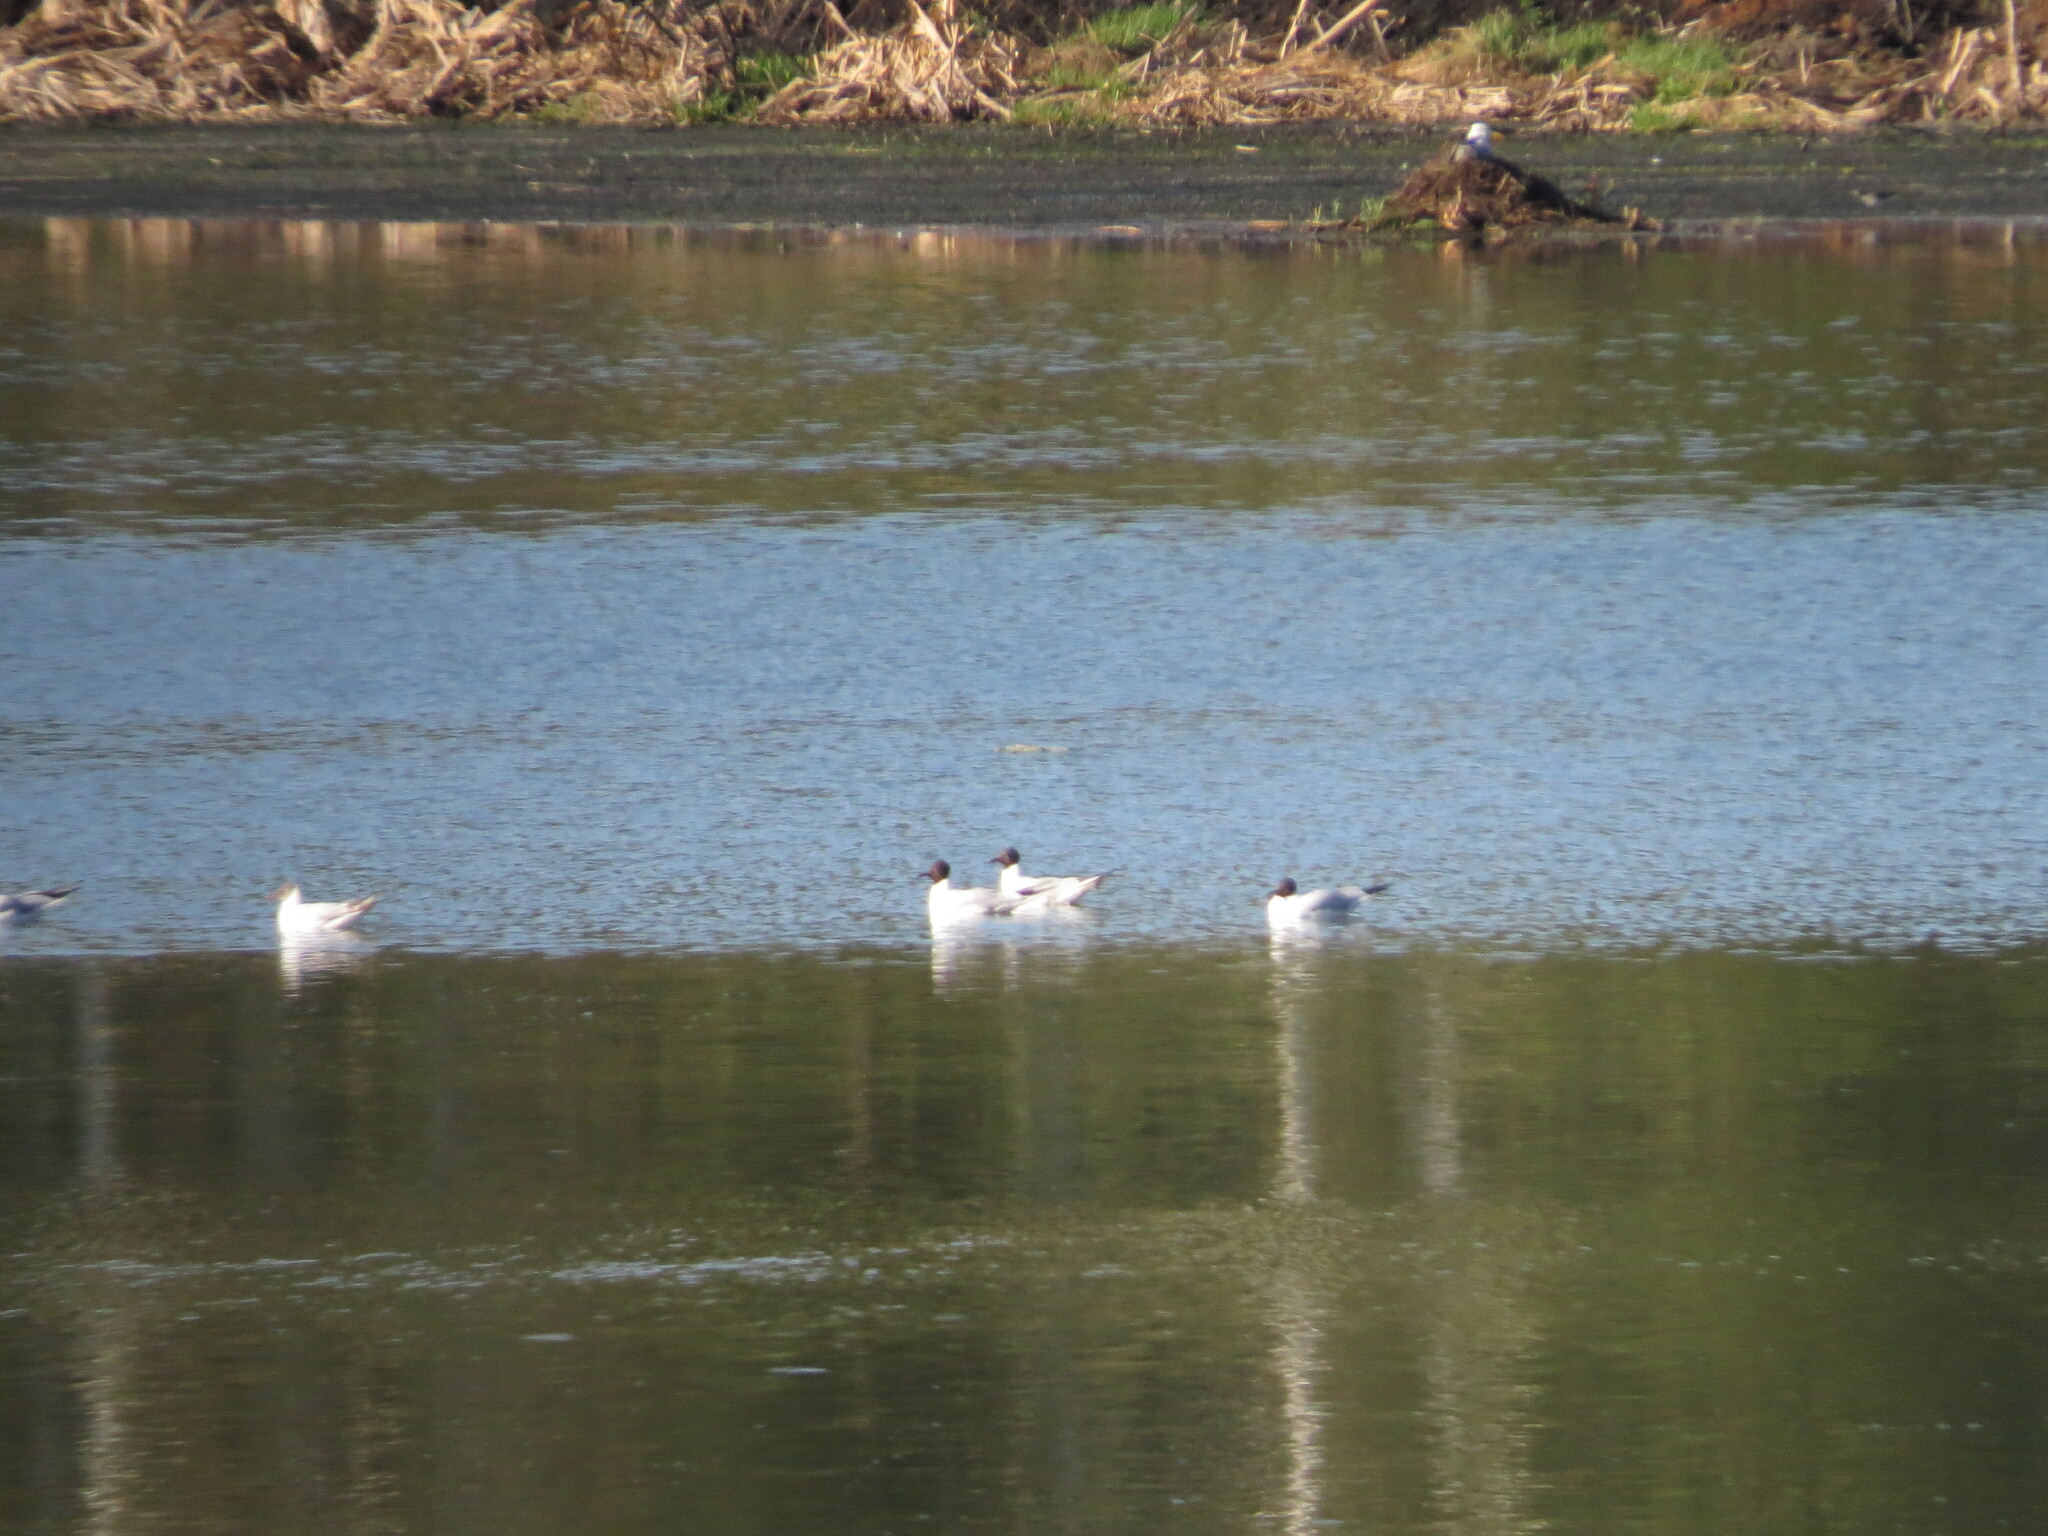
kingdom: Animalia
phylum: Chordata
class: Aves
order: Charadriiformes
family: Laridae
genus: Chroicocephalus
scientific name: Chroicocephalus ridibundus
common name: Black-headed gull
